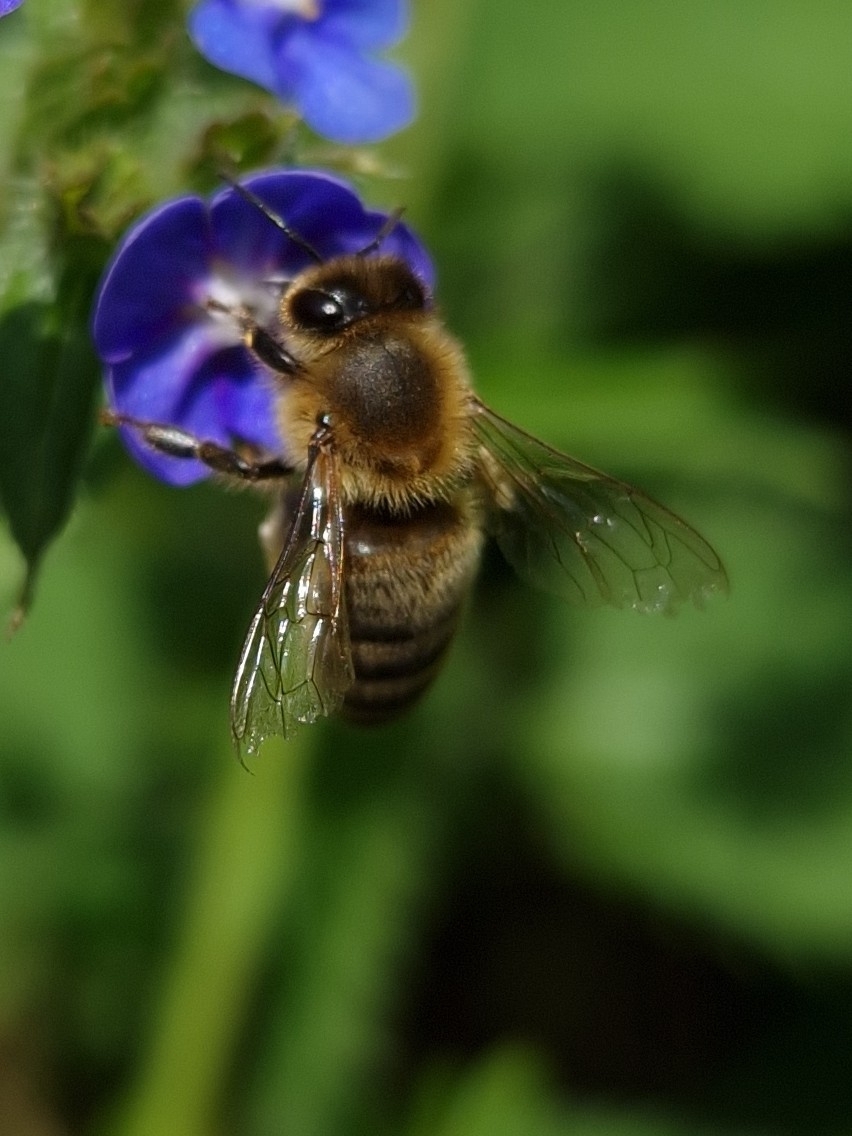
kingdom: Animalia
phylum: Arthropoda
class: Insecta
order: Hymenoptera
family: Apidae
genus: Apis
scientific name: Apis mellifera
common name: Honey bee
